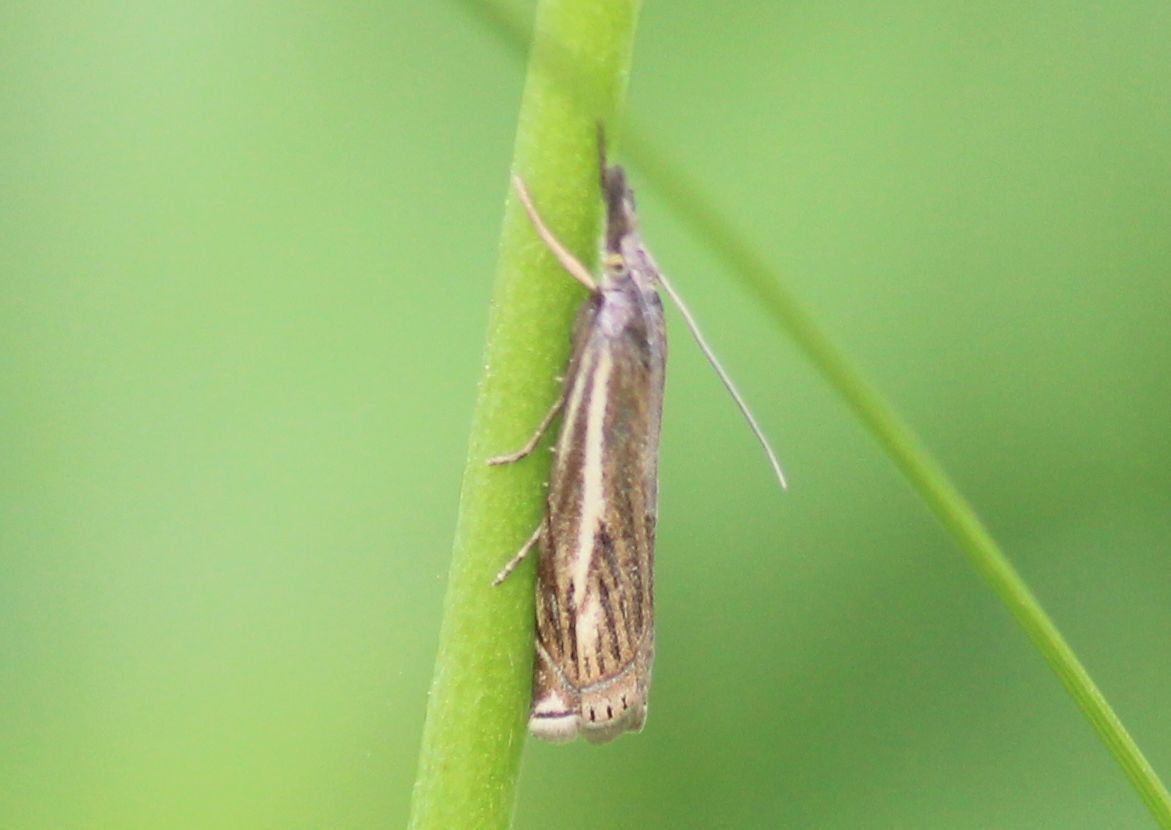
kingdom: Animalia
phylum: Arthropoda
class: Insecta
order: Lepidoptera
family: Crambidae
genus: Crambus
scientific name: Crambus nemorella
